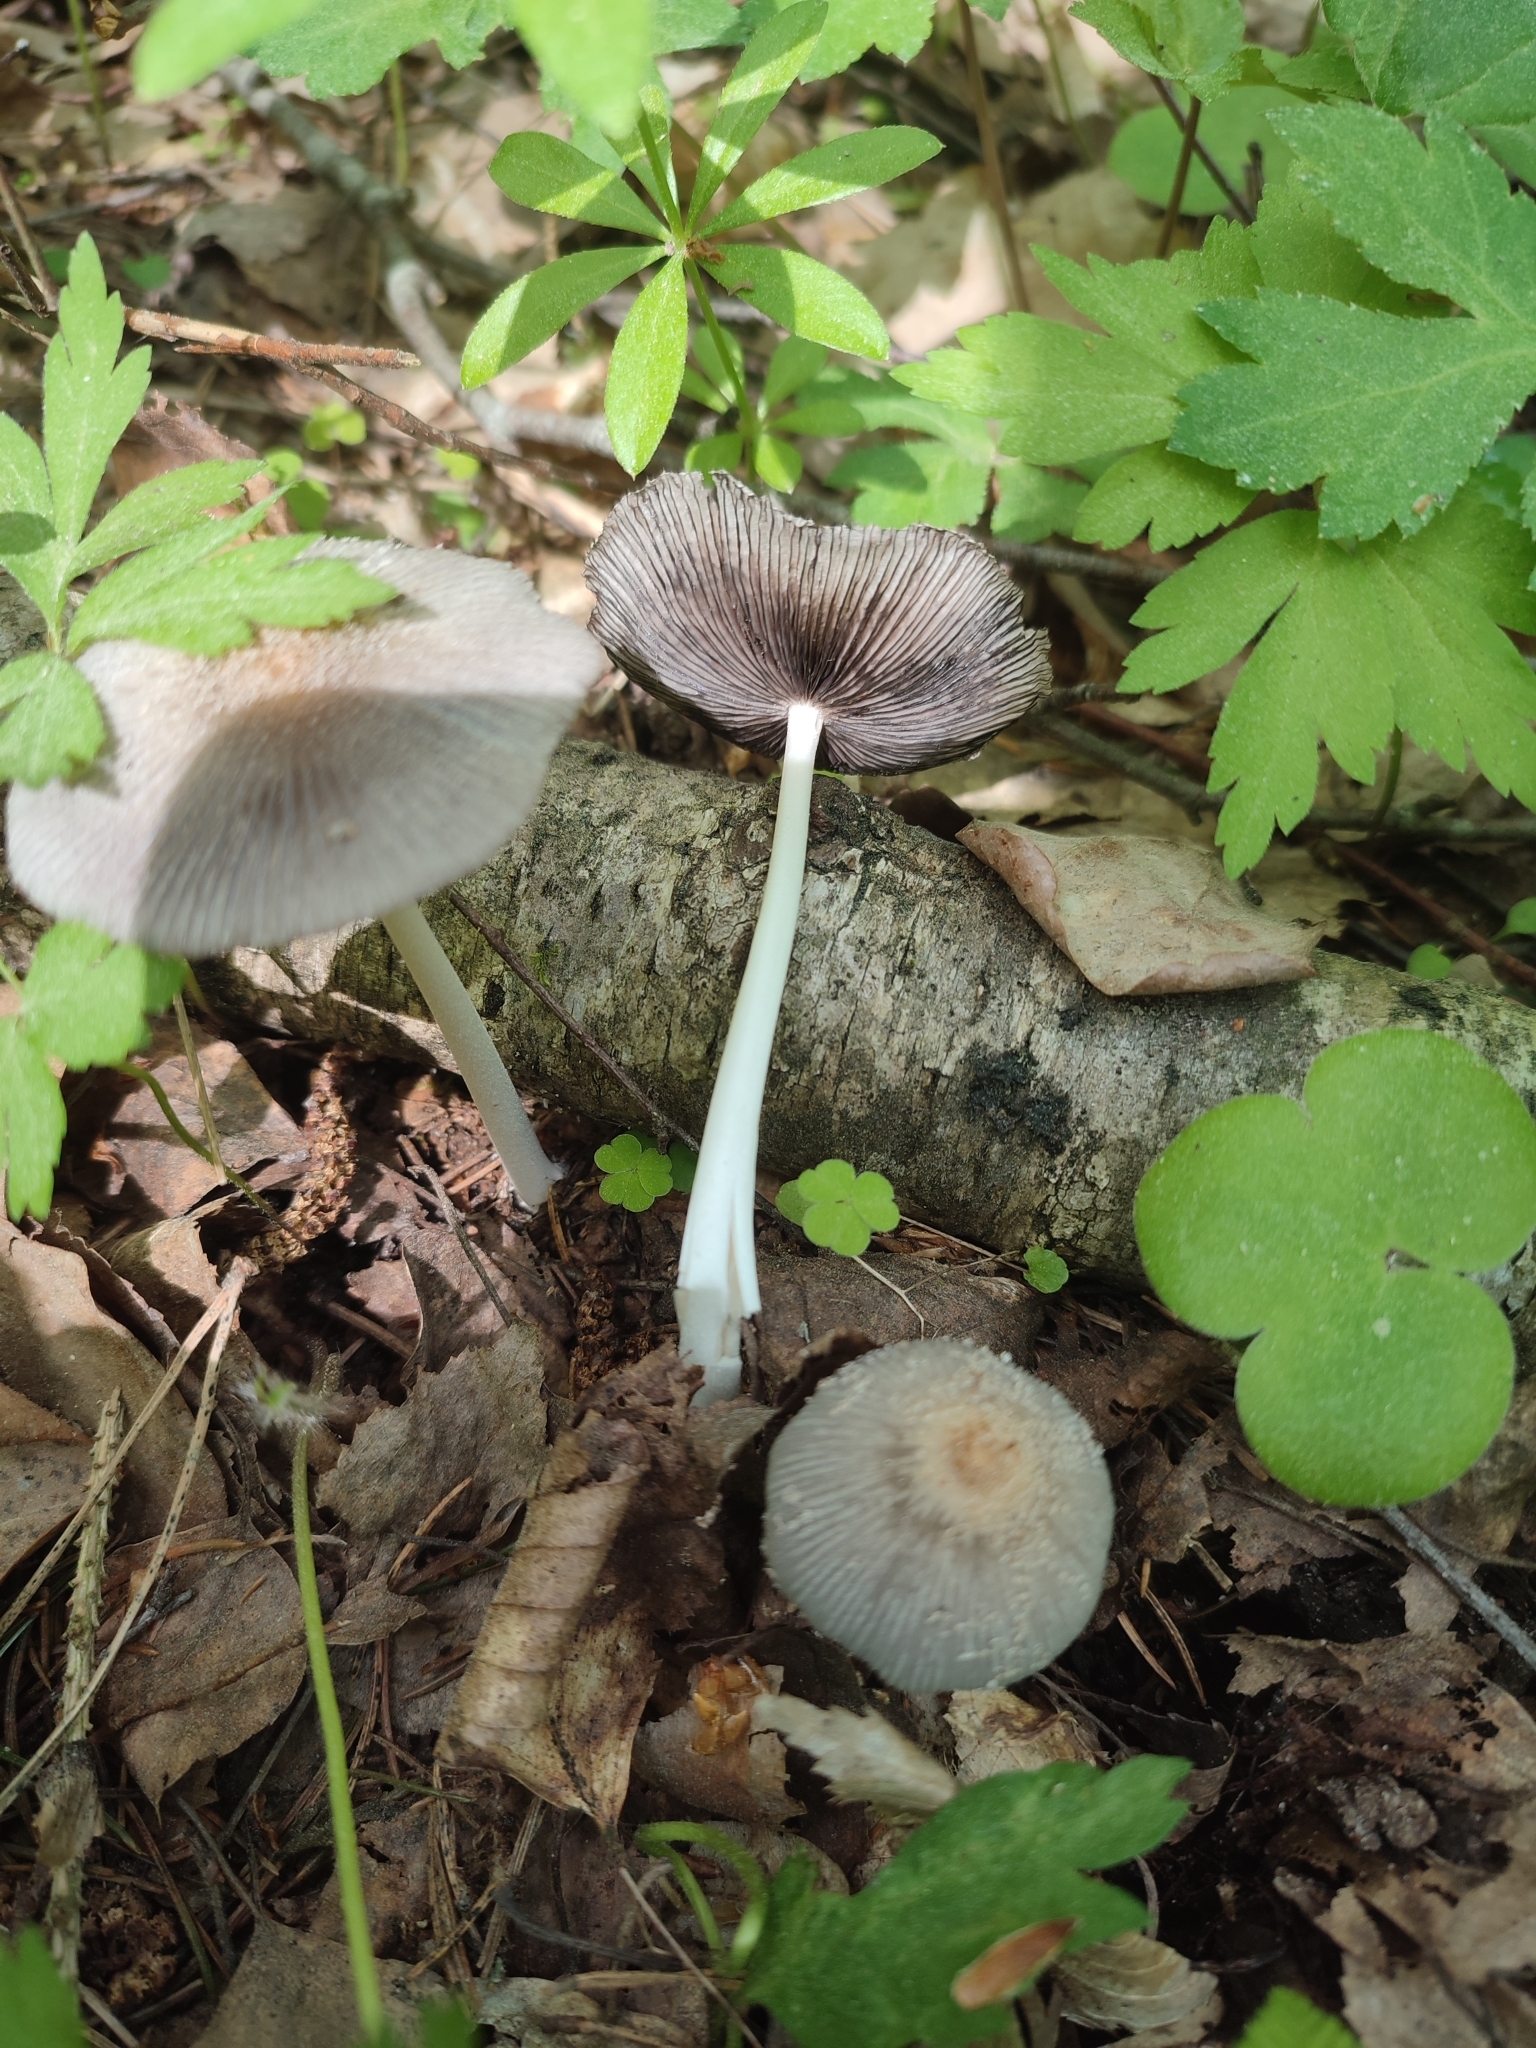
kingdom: Fungi
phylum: Basidiomycota
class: Agaricomycetes
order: Agaricales
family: Psathyrellaceae
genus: Coprinopsis
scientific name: Coprinopsis lagopus
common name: Hare'sfoot inkcap
